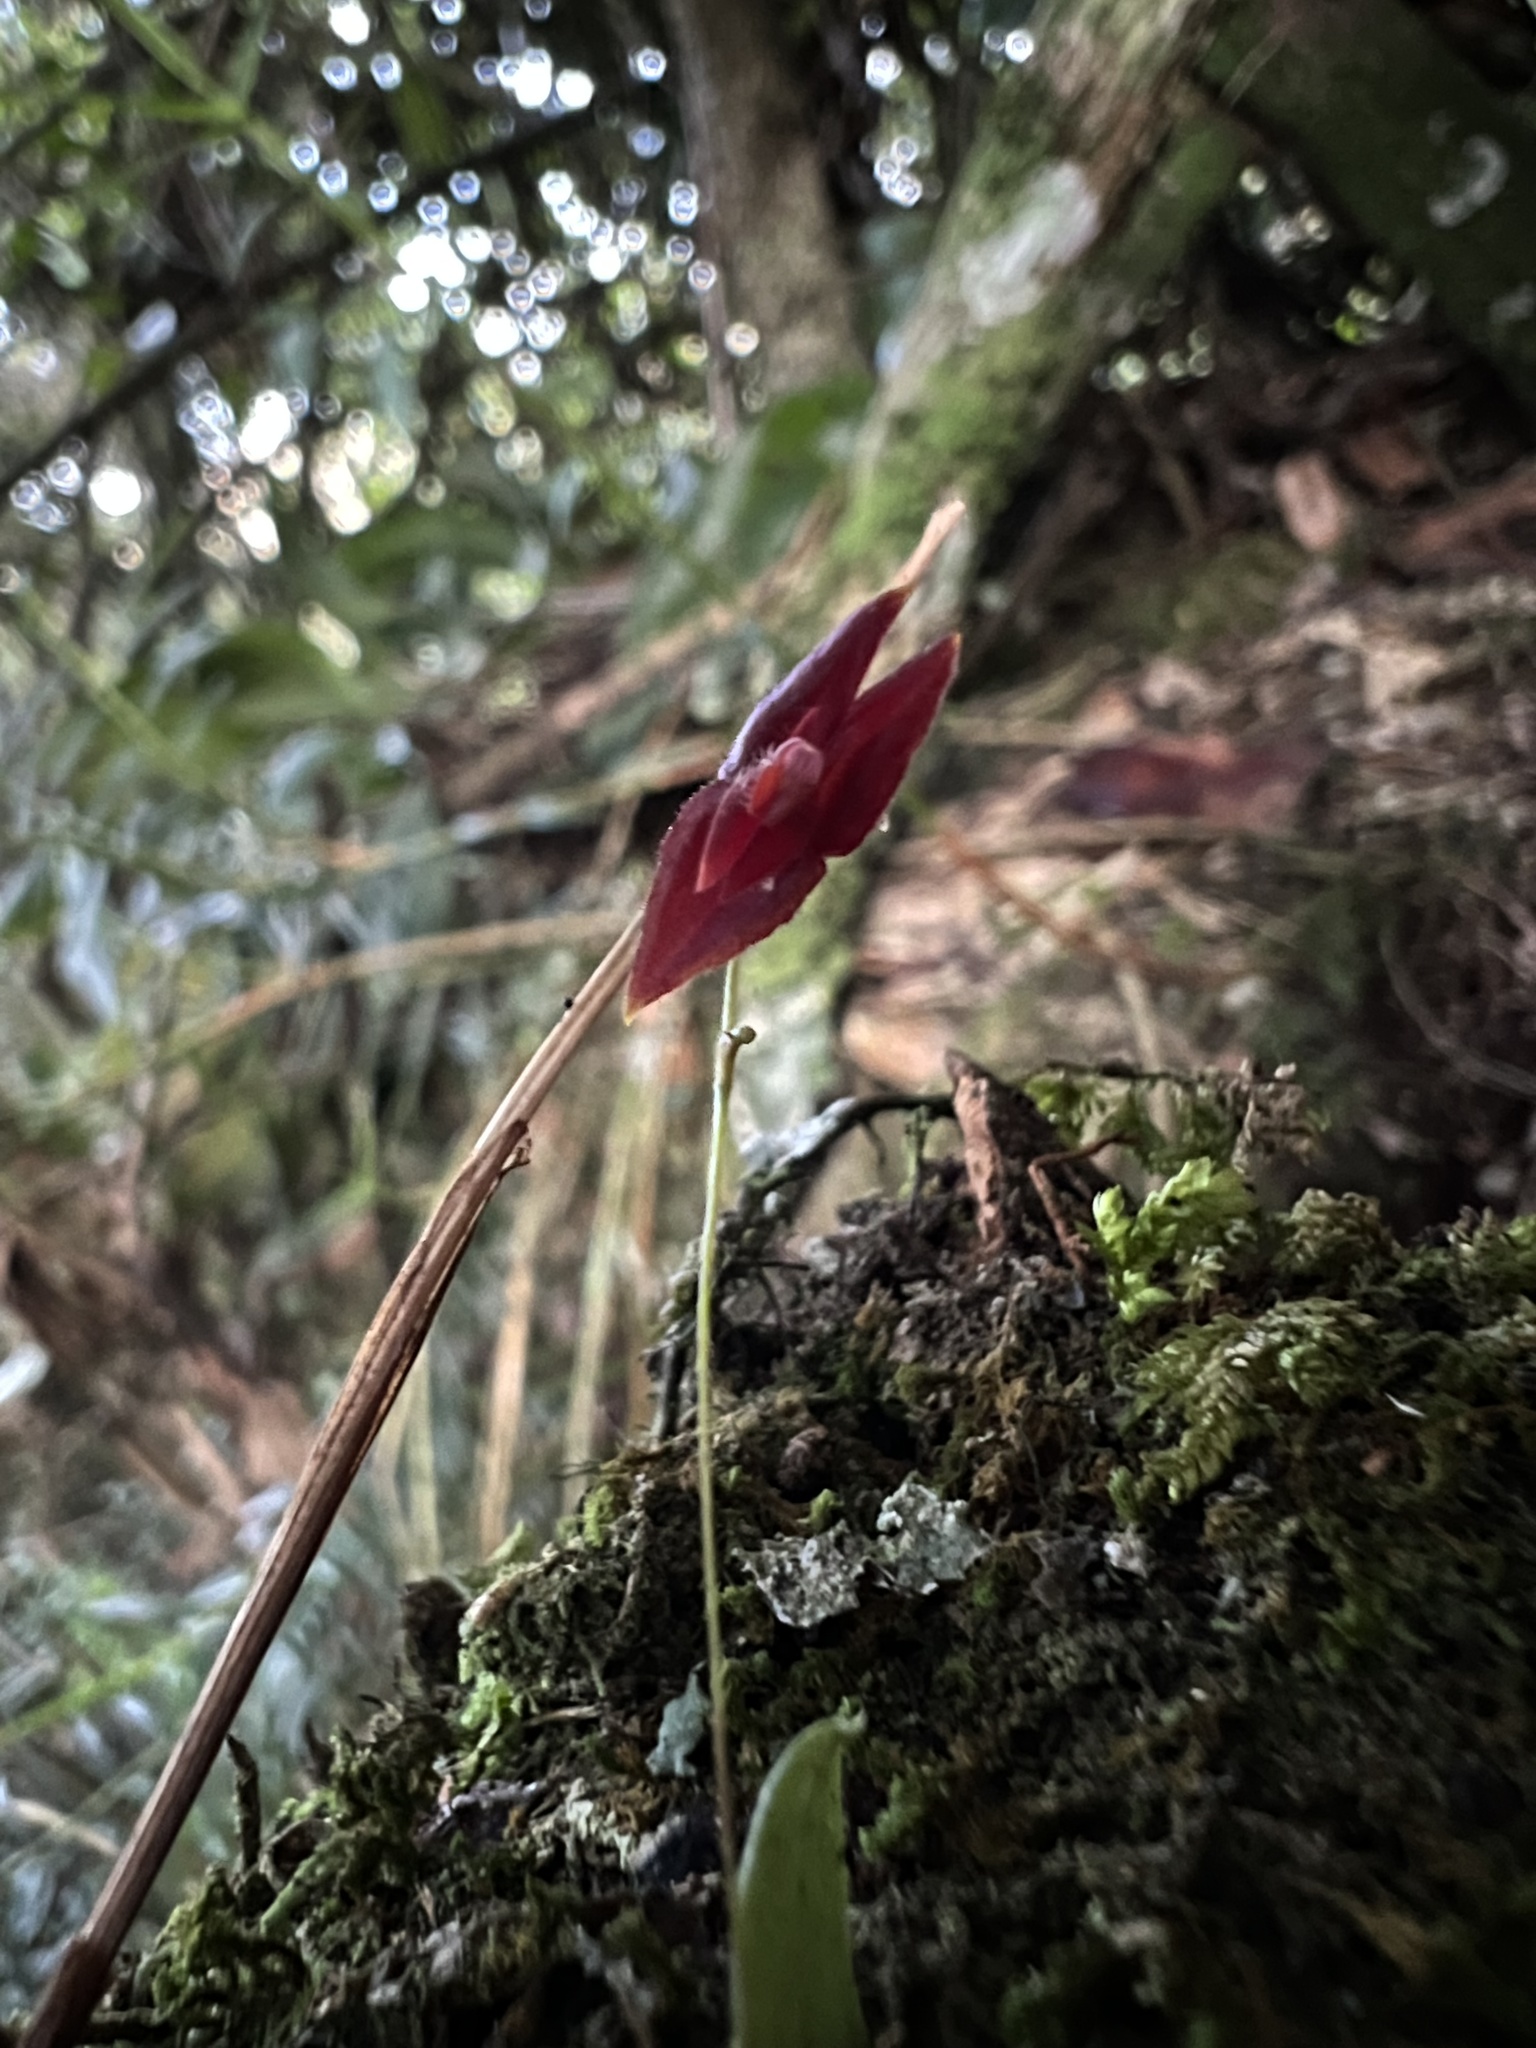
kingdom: Plantae
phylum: Tracheophyta
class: Liliopsida
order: Asparagales
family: Orchidaceae
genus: Lepanthes
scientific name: Lepanthes lingulosa
